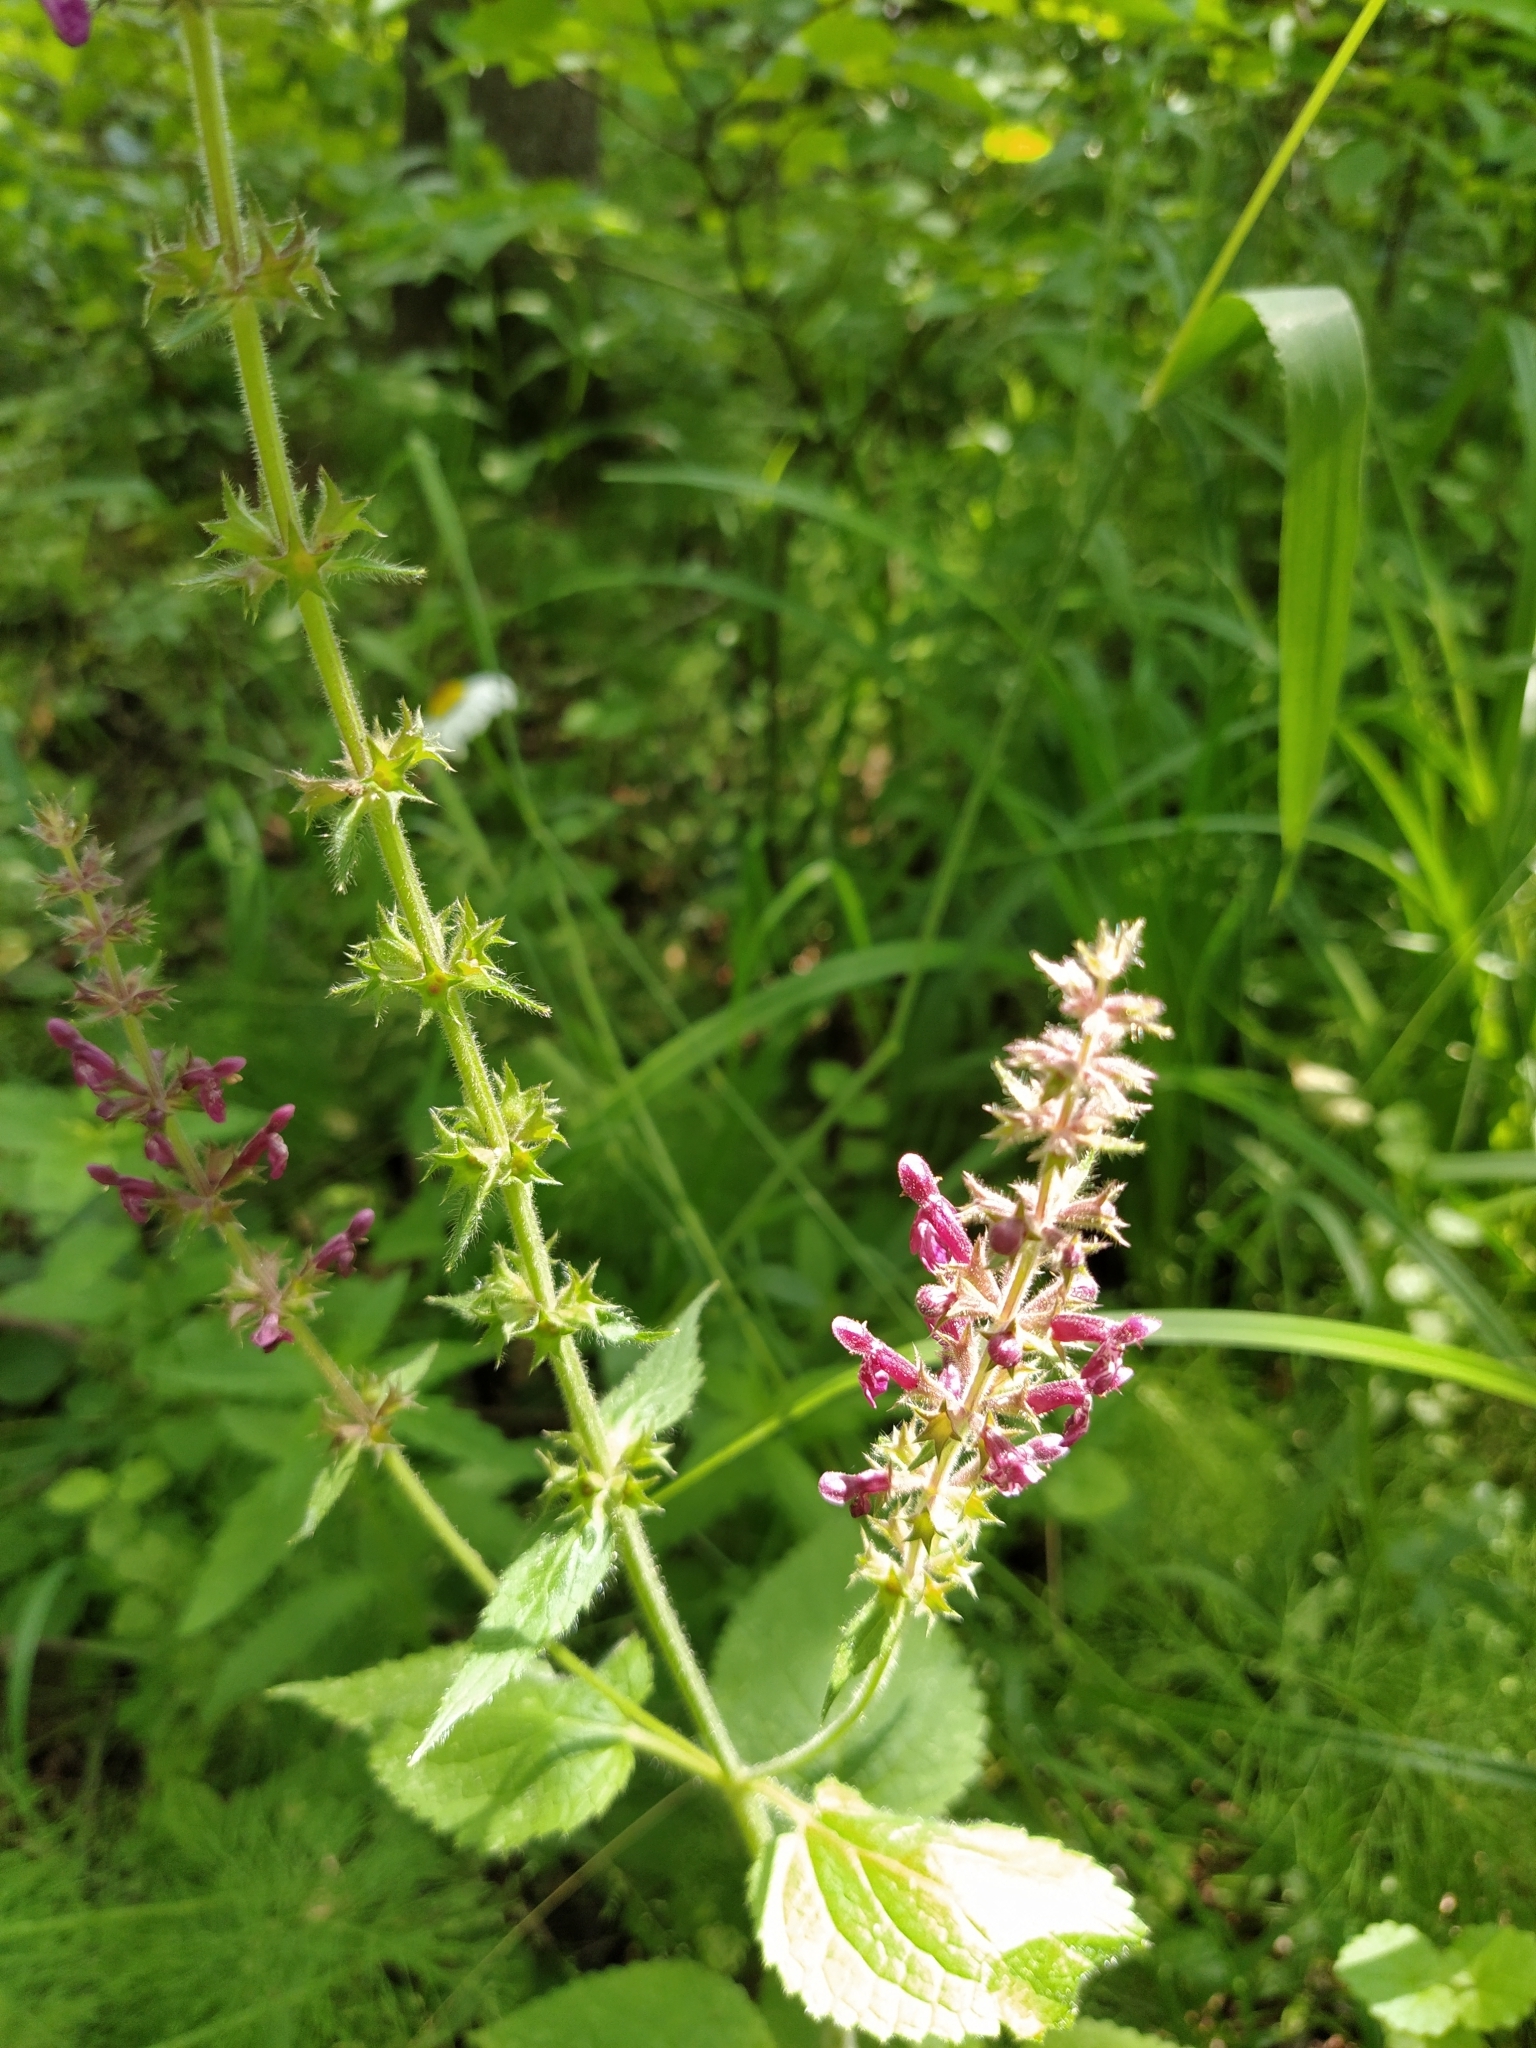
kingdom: Plantae
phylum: Tracheophyta
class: Magnoliopsida
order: Lamiales
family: Lamiaceae
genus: Stachys
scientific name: Stachys sylvatica
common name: Hedge woundwort
